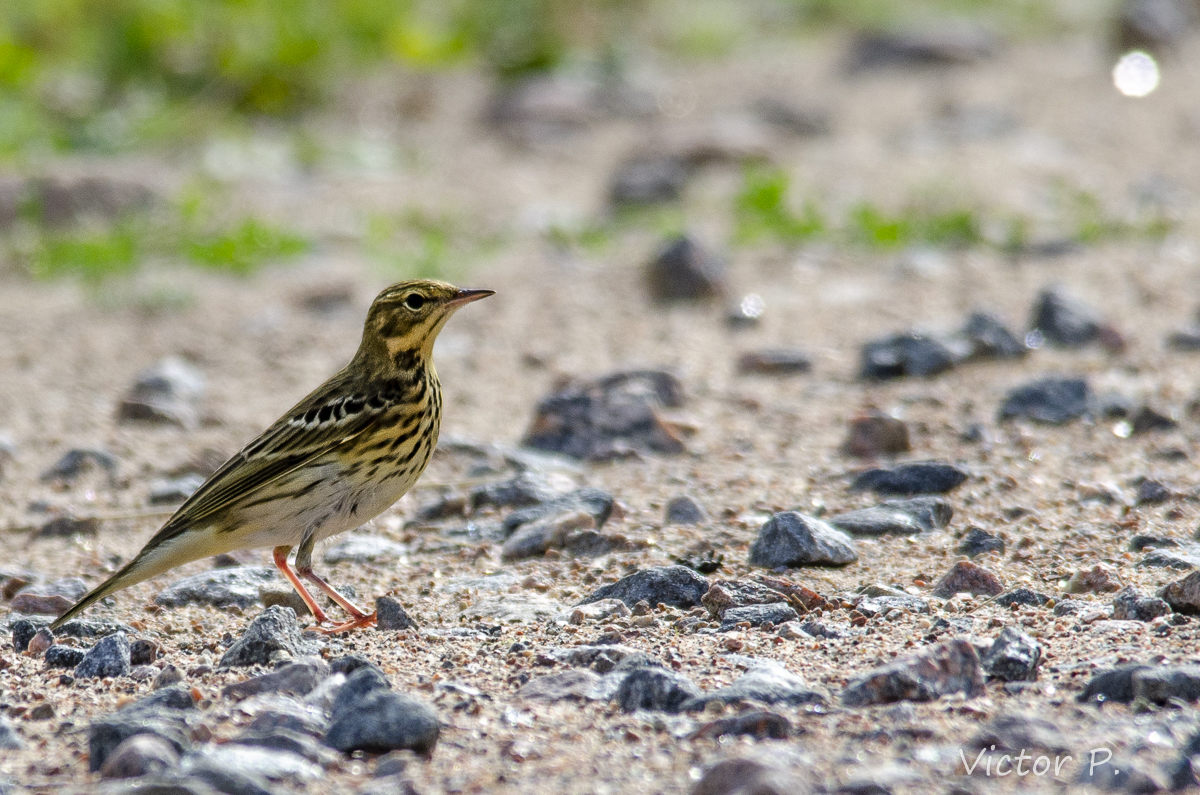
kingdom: Animalia
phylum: Chordata
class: Aves
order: Passeriformes
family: Motacillidae
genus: Anthus
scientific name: Anthus trivialis
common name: Tree pipit
